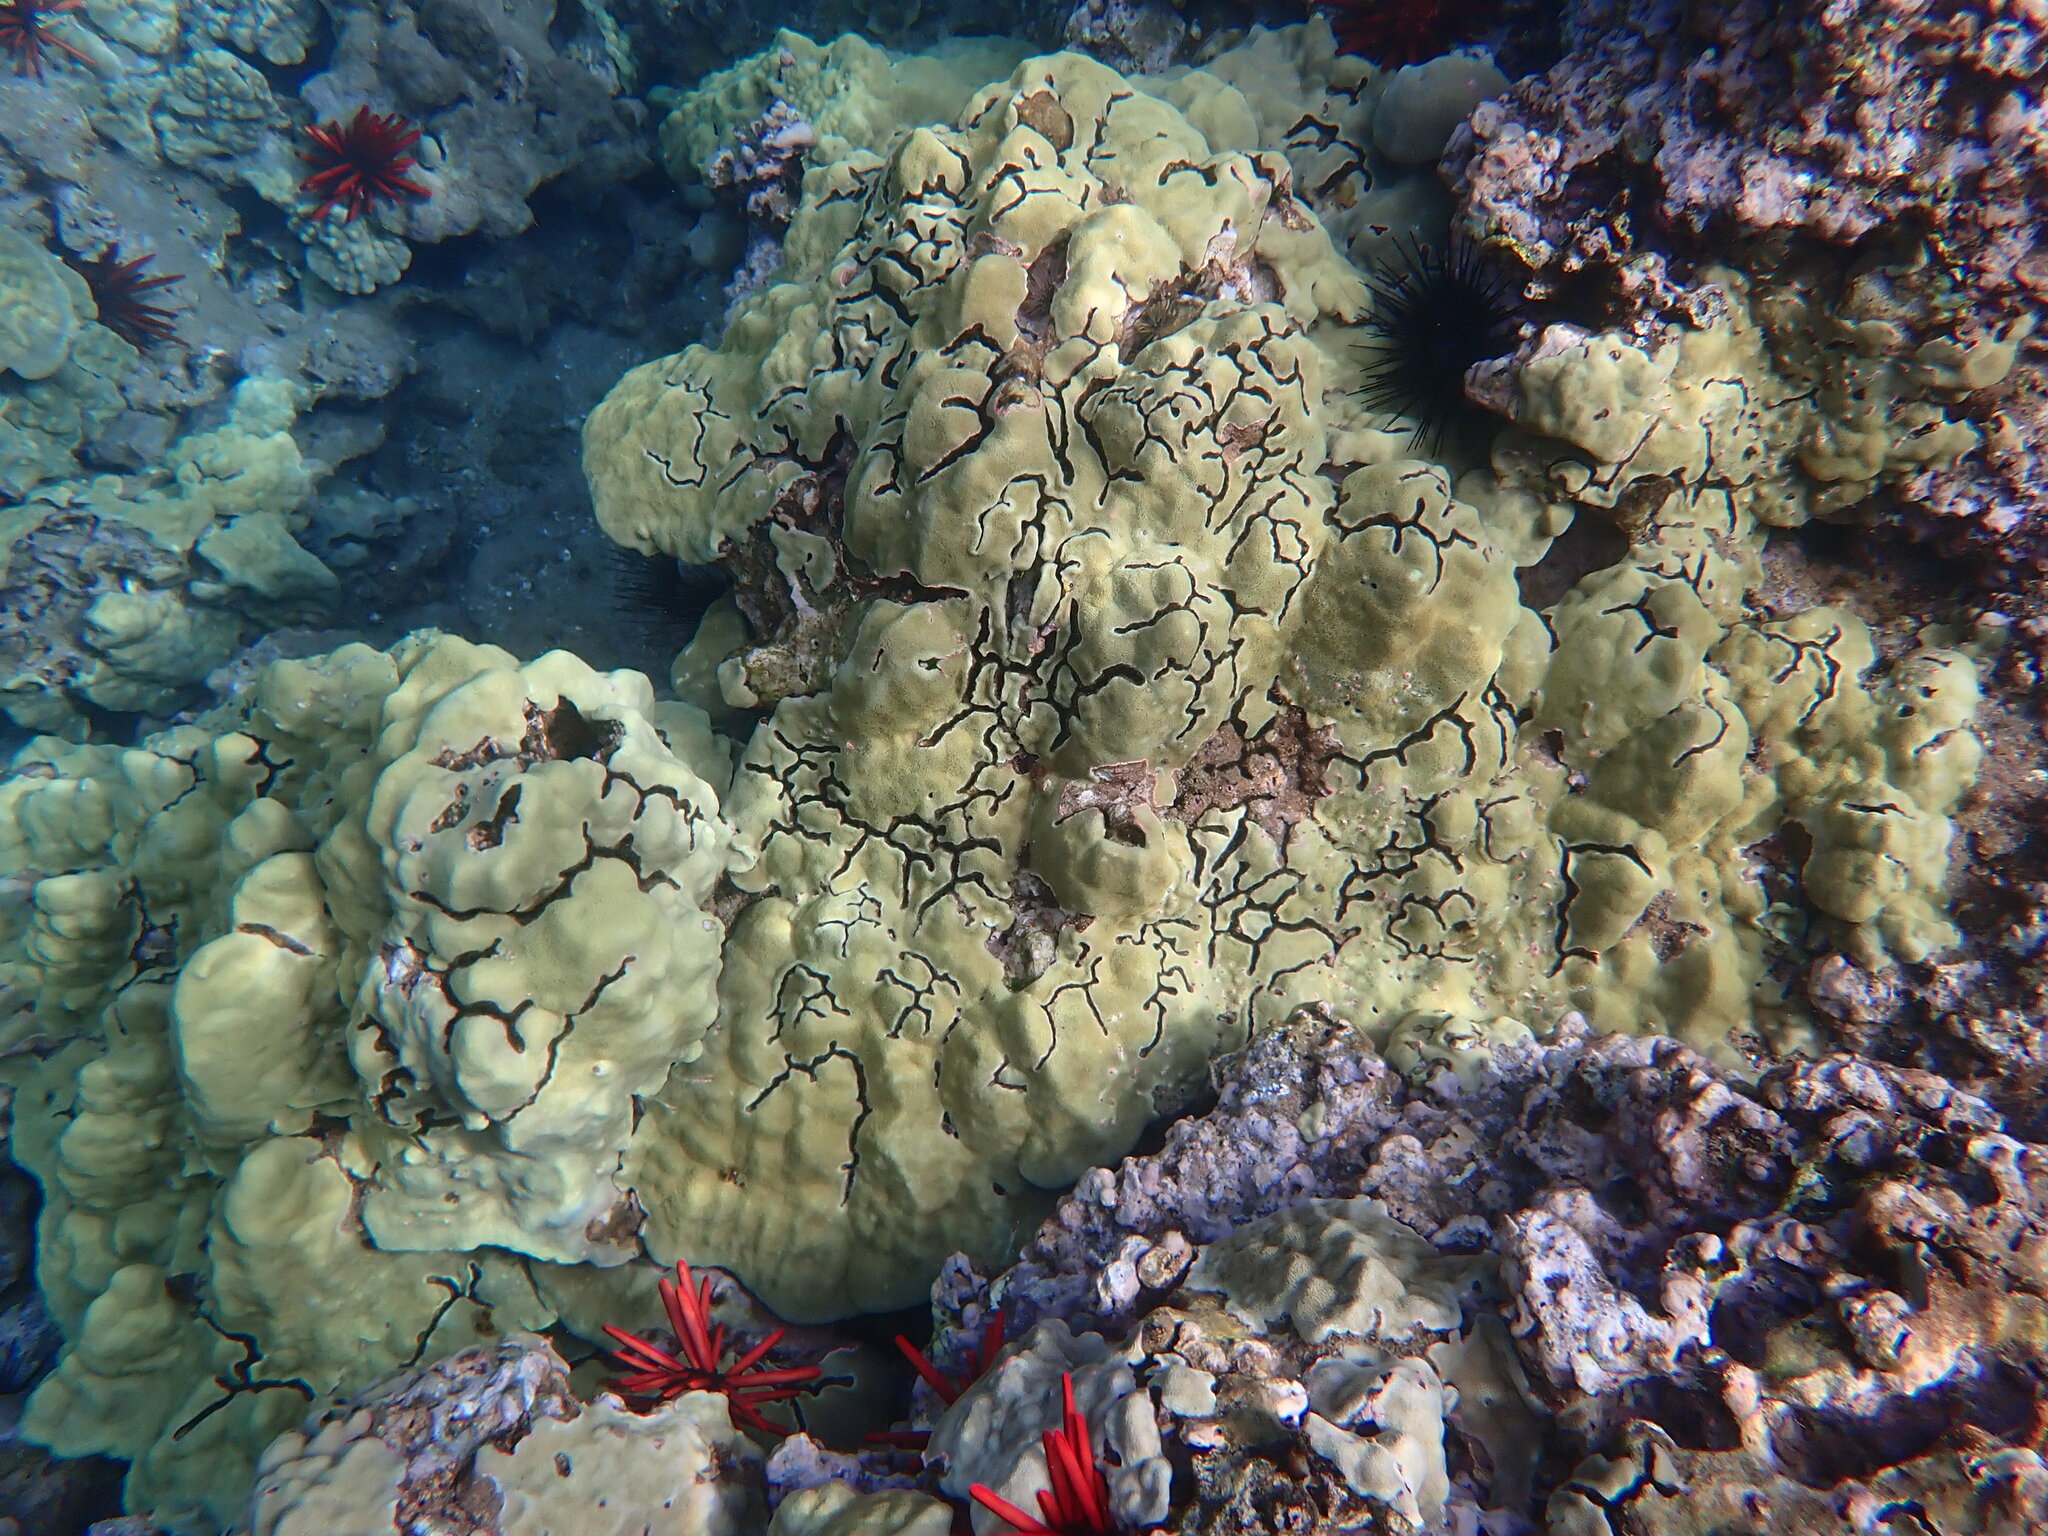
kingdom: Animalia
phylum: Arthropoda
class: Malacostraca
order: Decapoda
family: Alpheidae
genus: Alpheus
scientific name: Alpheus deuteropus
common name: Petroglyph shrimp
